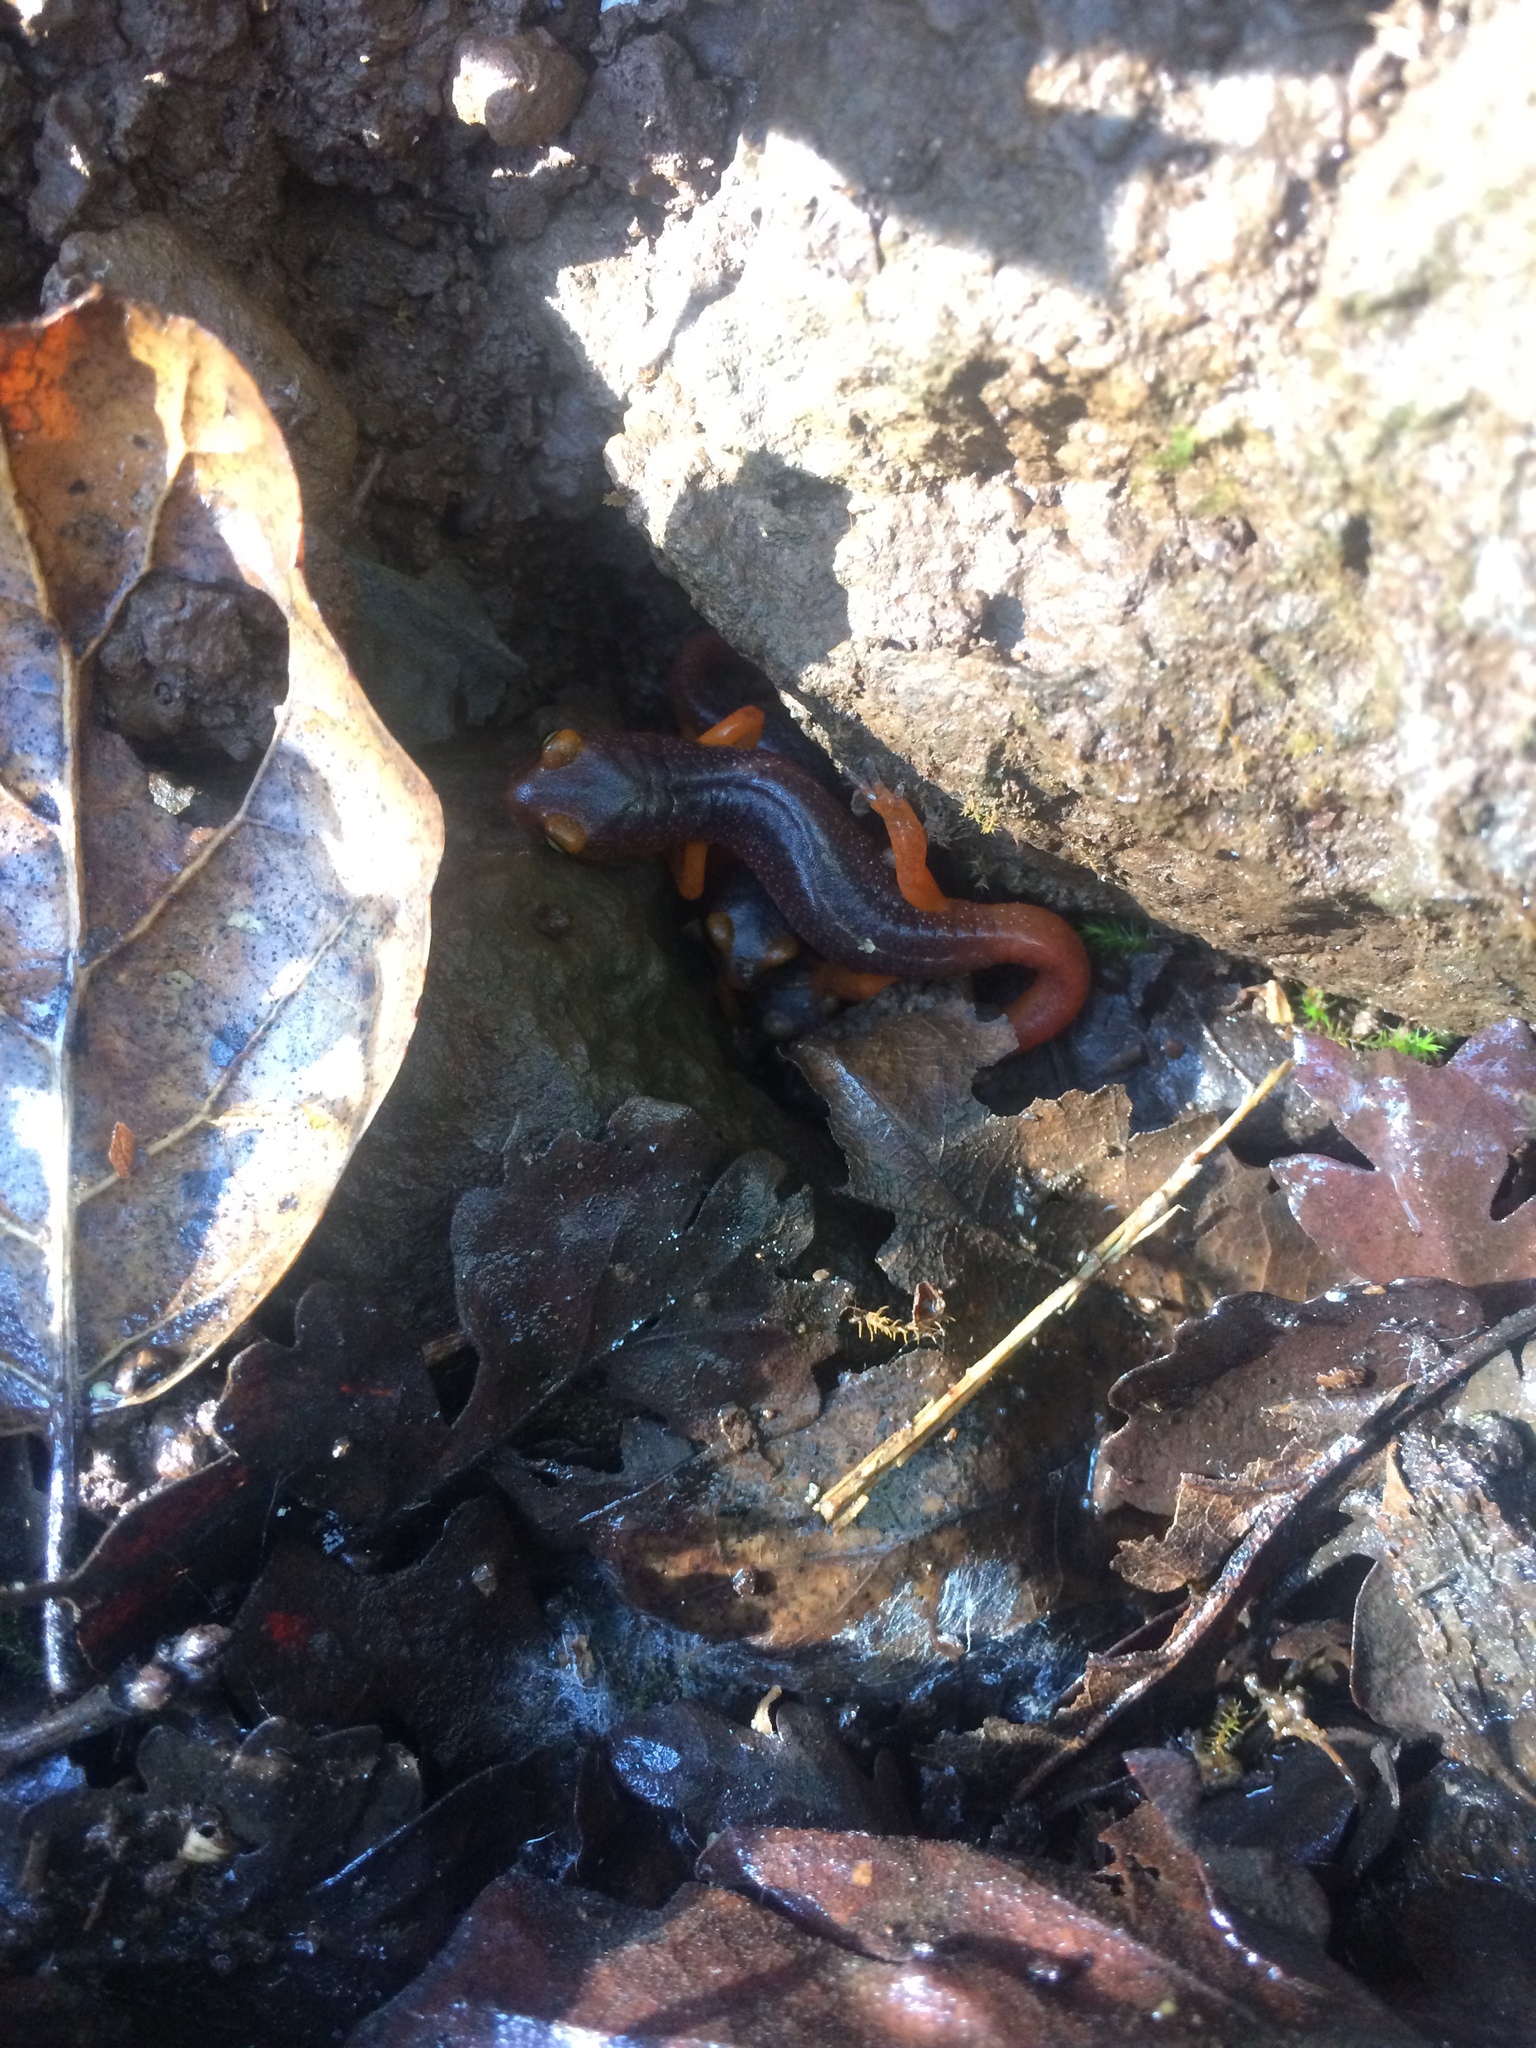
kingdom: Animalia
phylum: Chordata
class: Amphibia
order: Caudata
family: Plethodontidae
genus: Ensatina
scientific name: Ensatina eschscholtzii
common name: Ensatina
